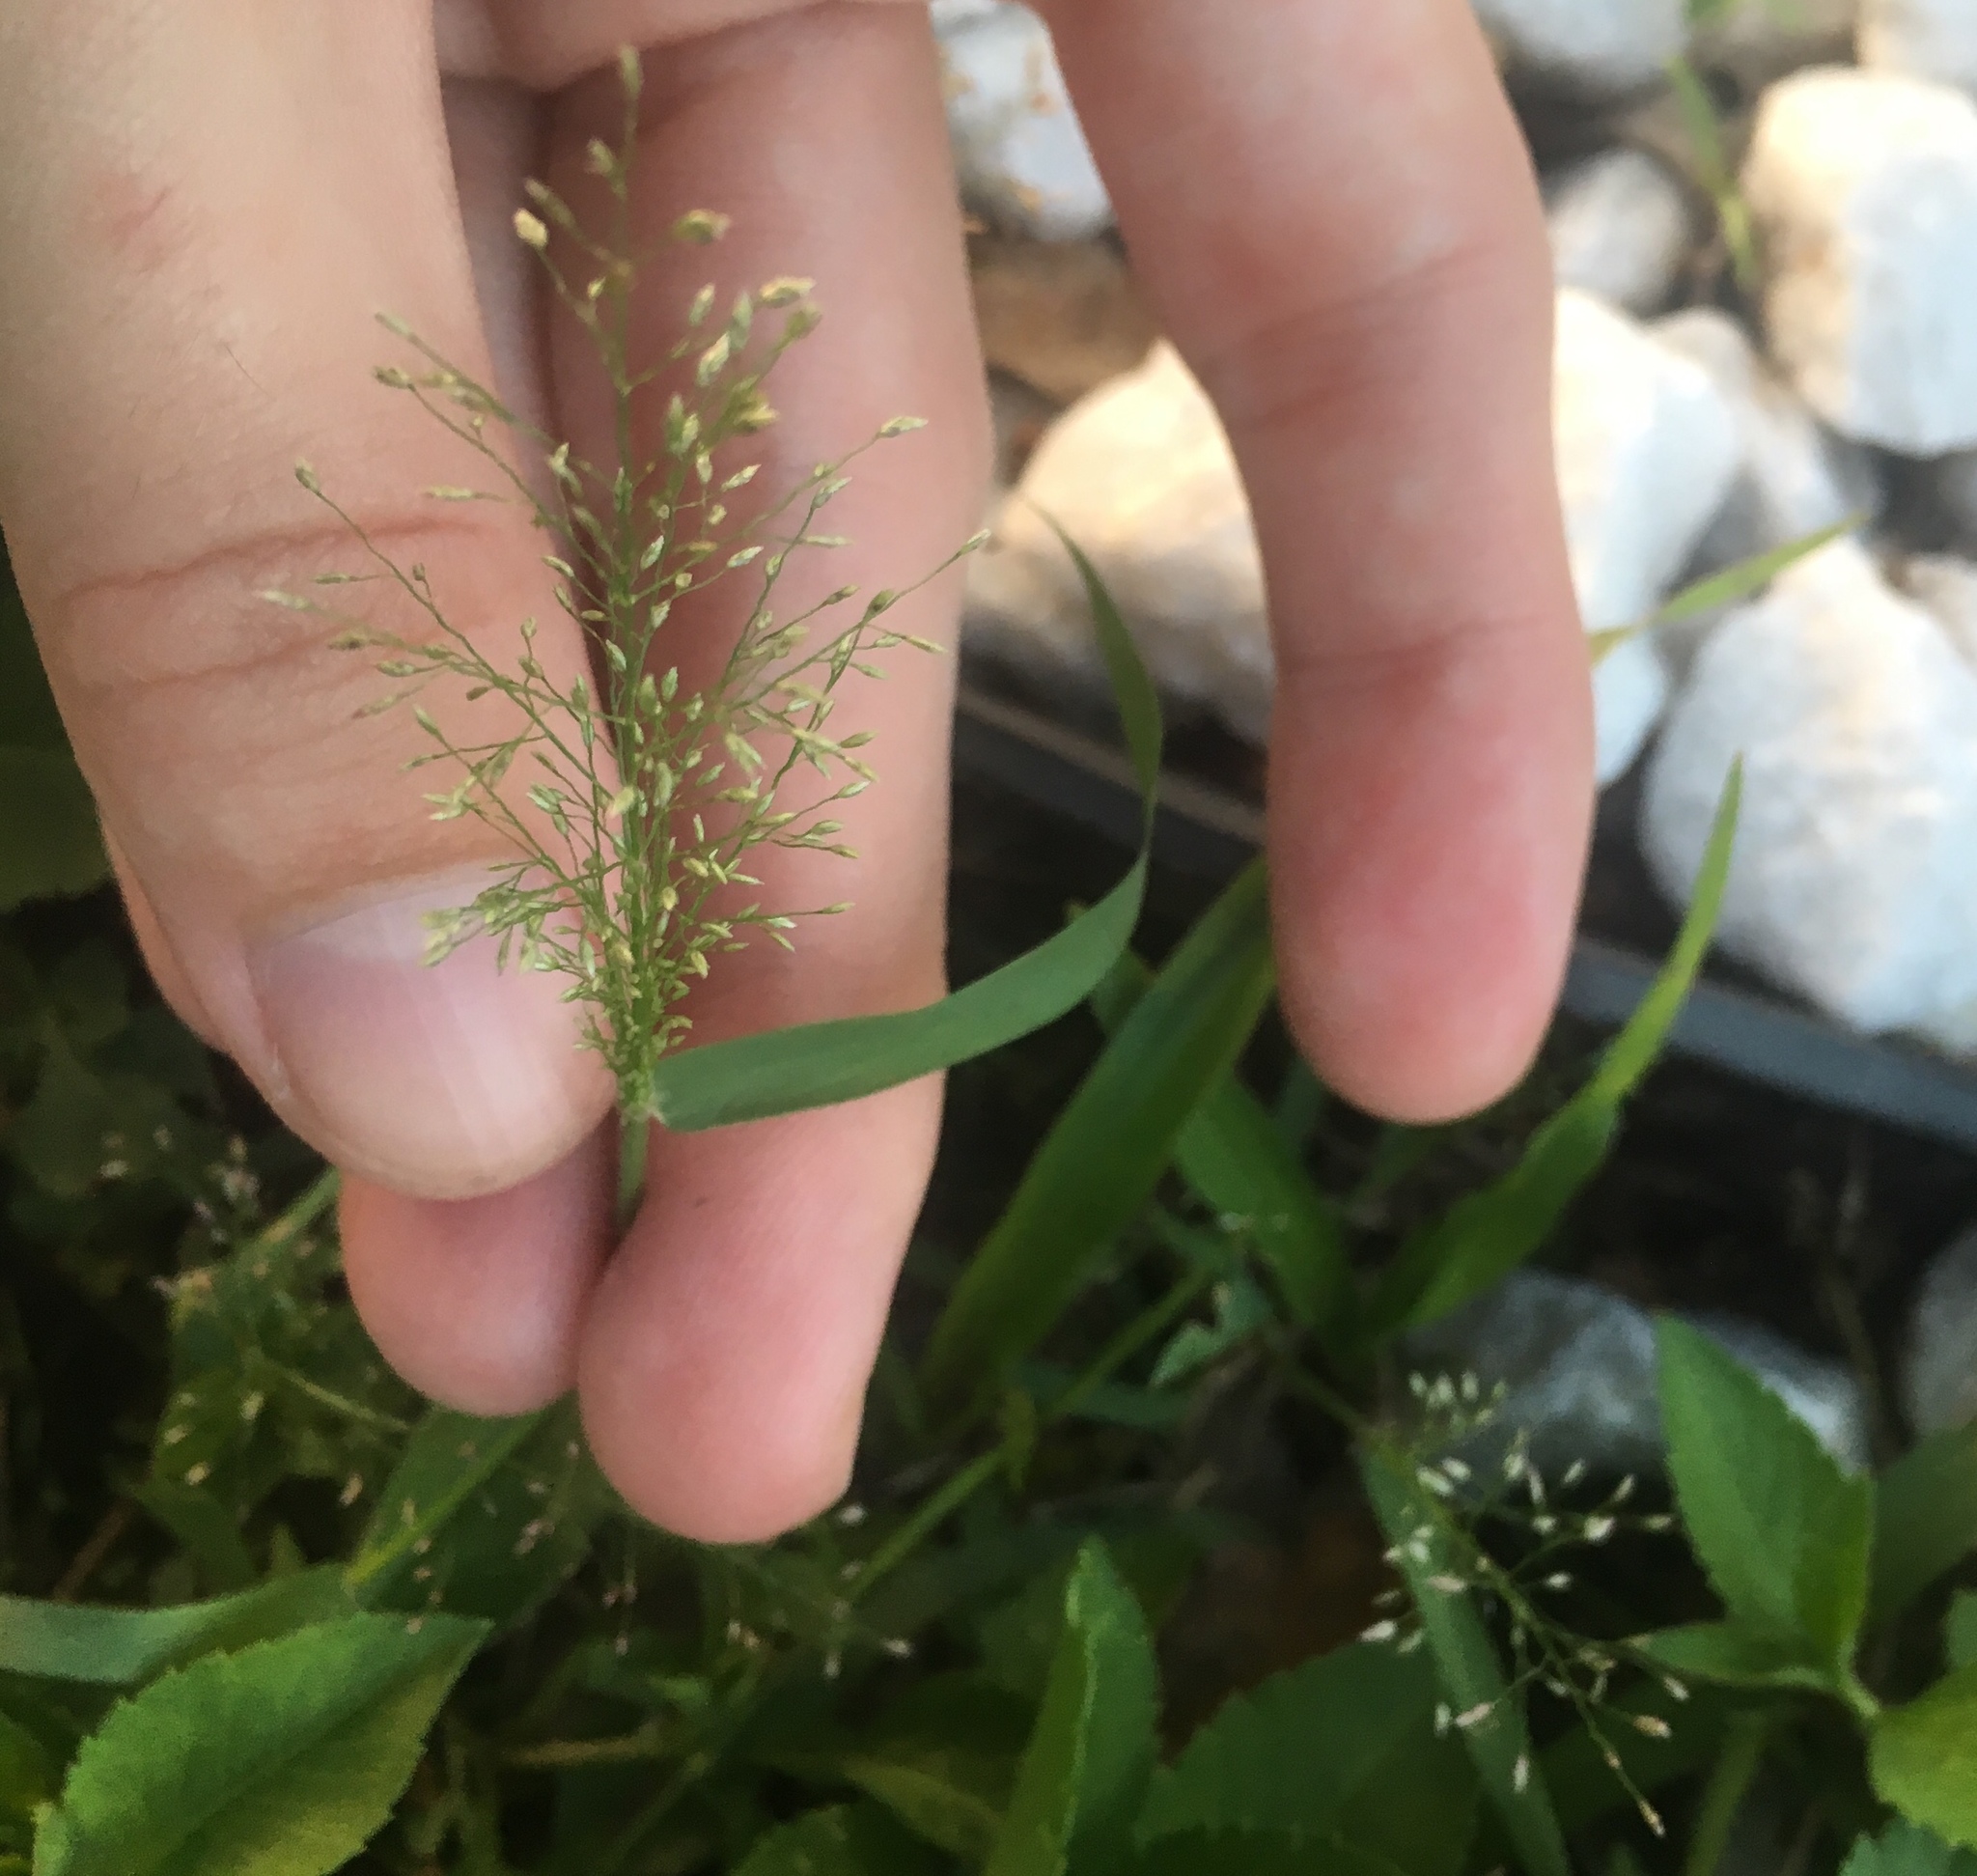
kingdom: Plantae
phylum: Tracheophyta
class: Liliopsida
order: Poales
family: Poaceae
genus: Eragrostis
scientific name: Eragrostis tenella
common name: Japanese lovegrass
